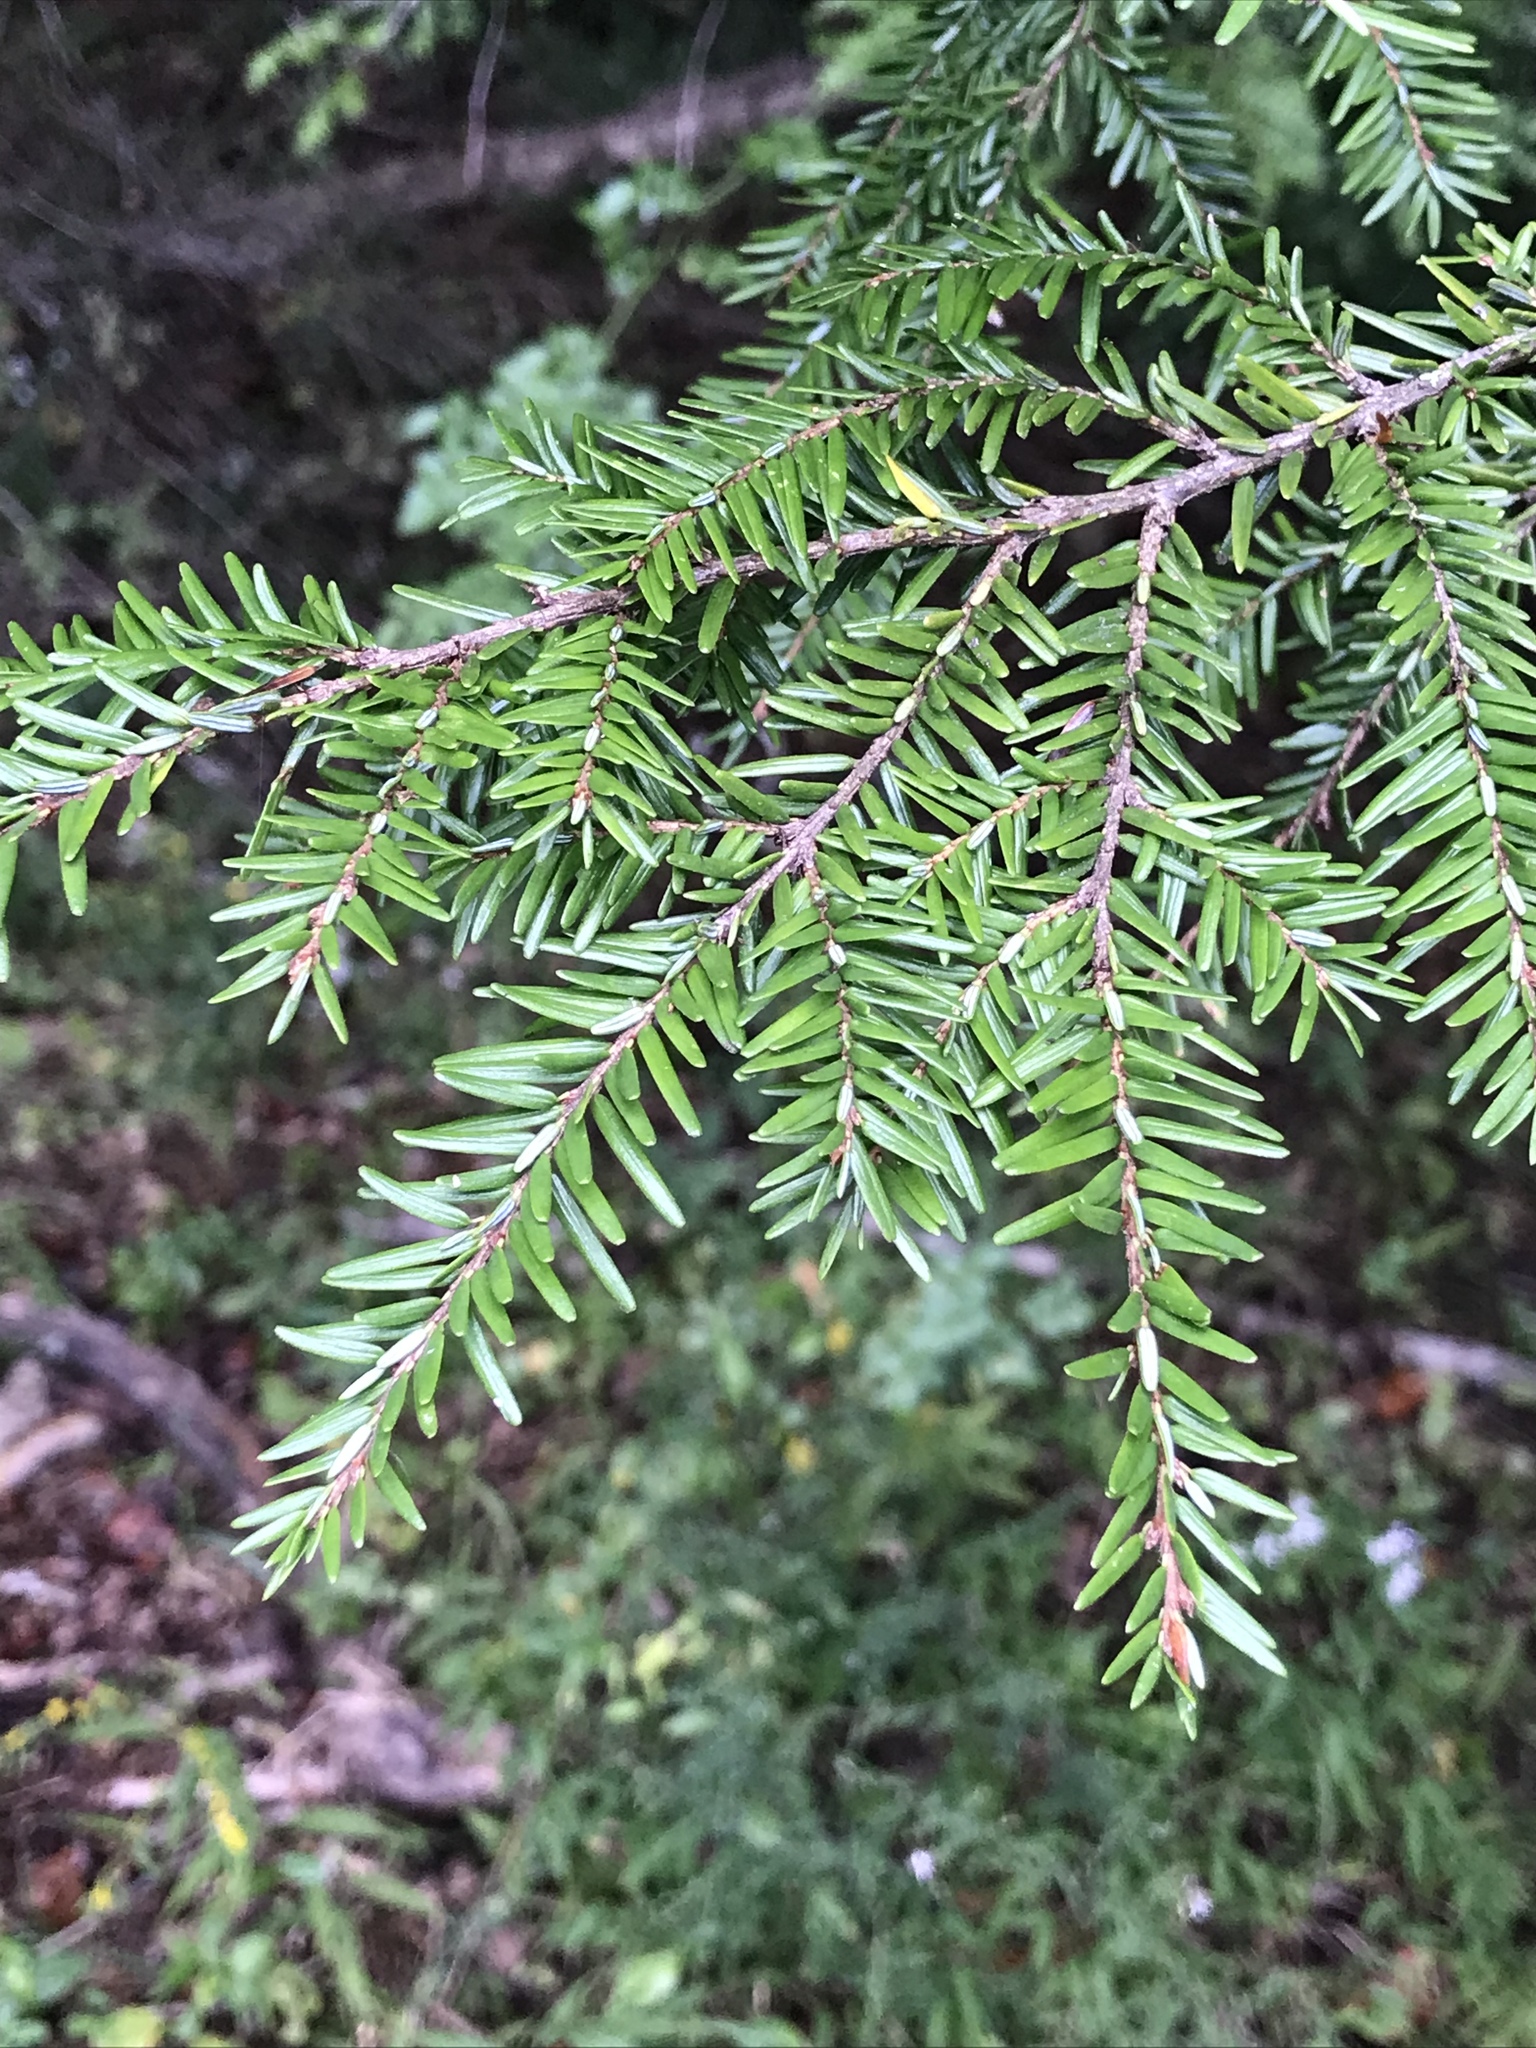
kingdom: Plantae
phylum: Tracheophyta
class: Pinopsida
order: Pinales
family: Pinaceae
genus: Tsuga
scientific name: Tsuga canadensis
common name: Eastern hemlock
